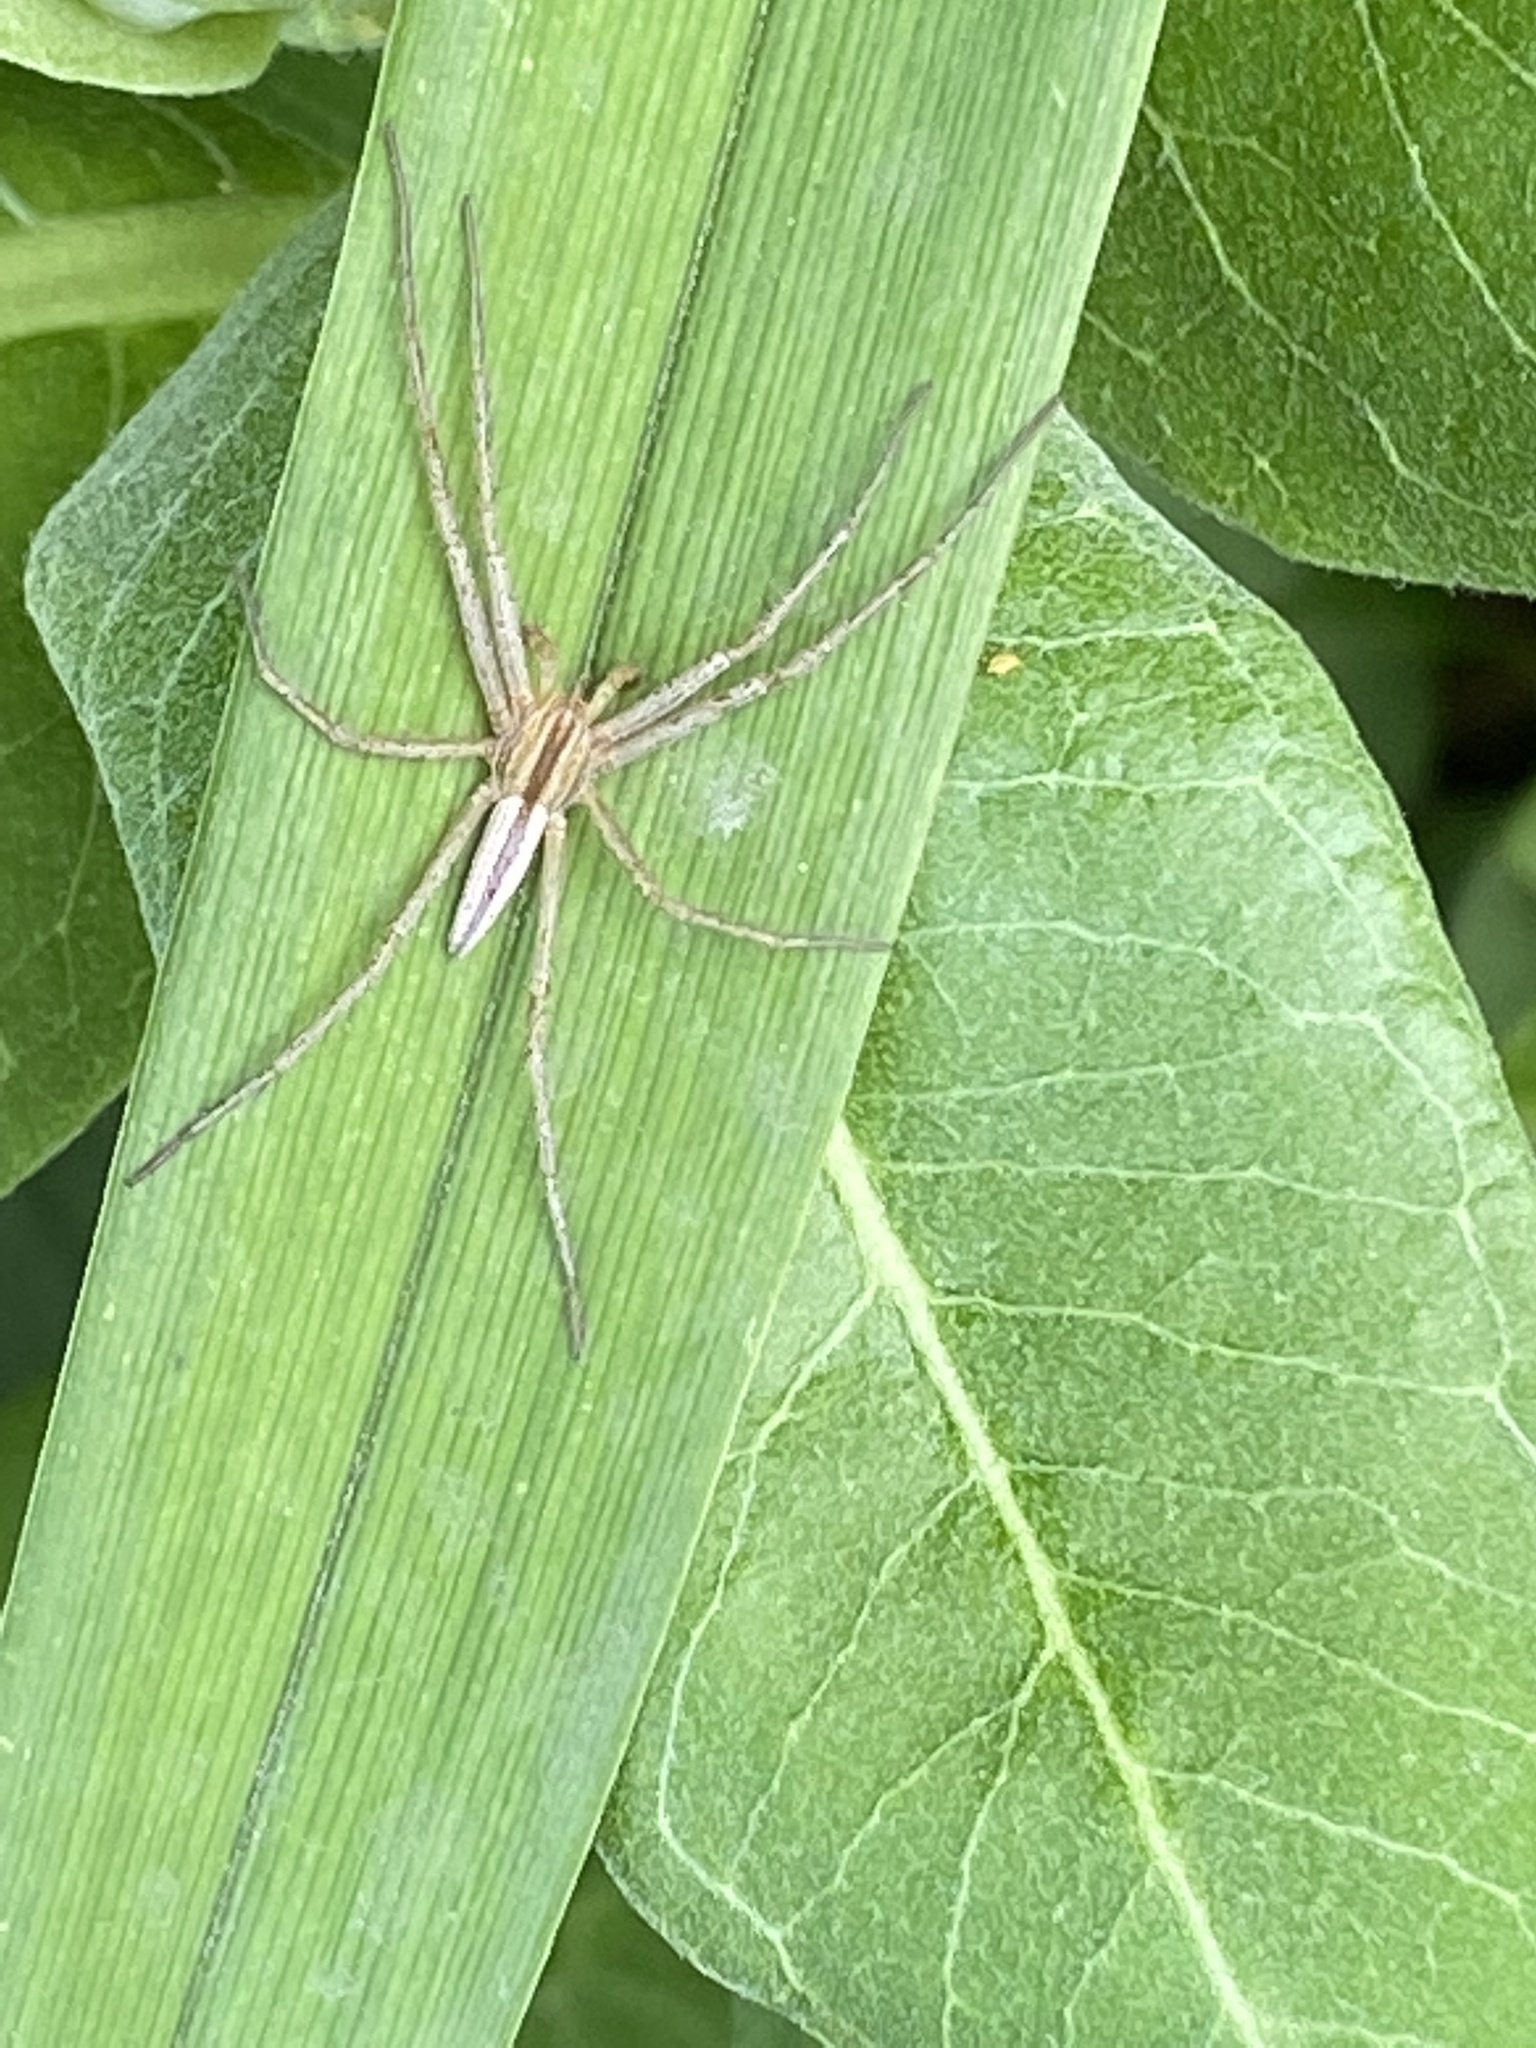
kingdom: Animalia
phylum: Arthropoda
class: Arachnida
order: Araneae
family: Philodromidae
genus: Tibellus
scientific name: Tibellus oblongus
